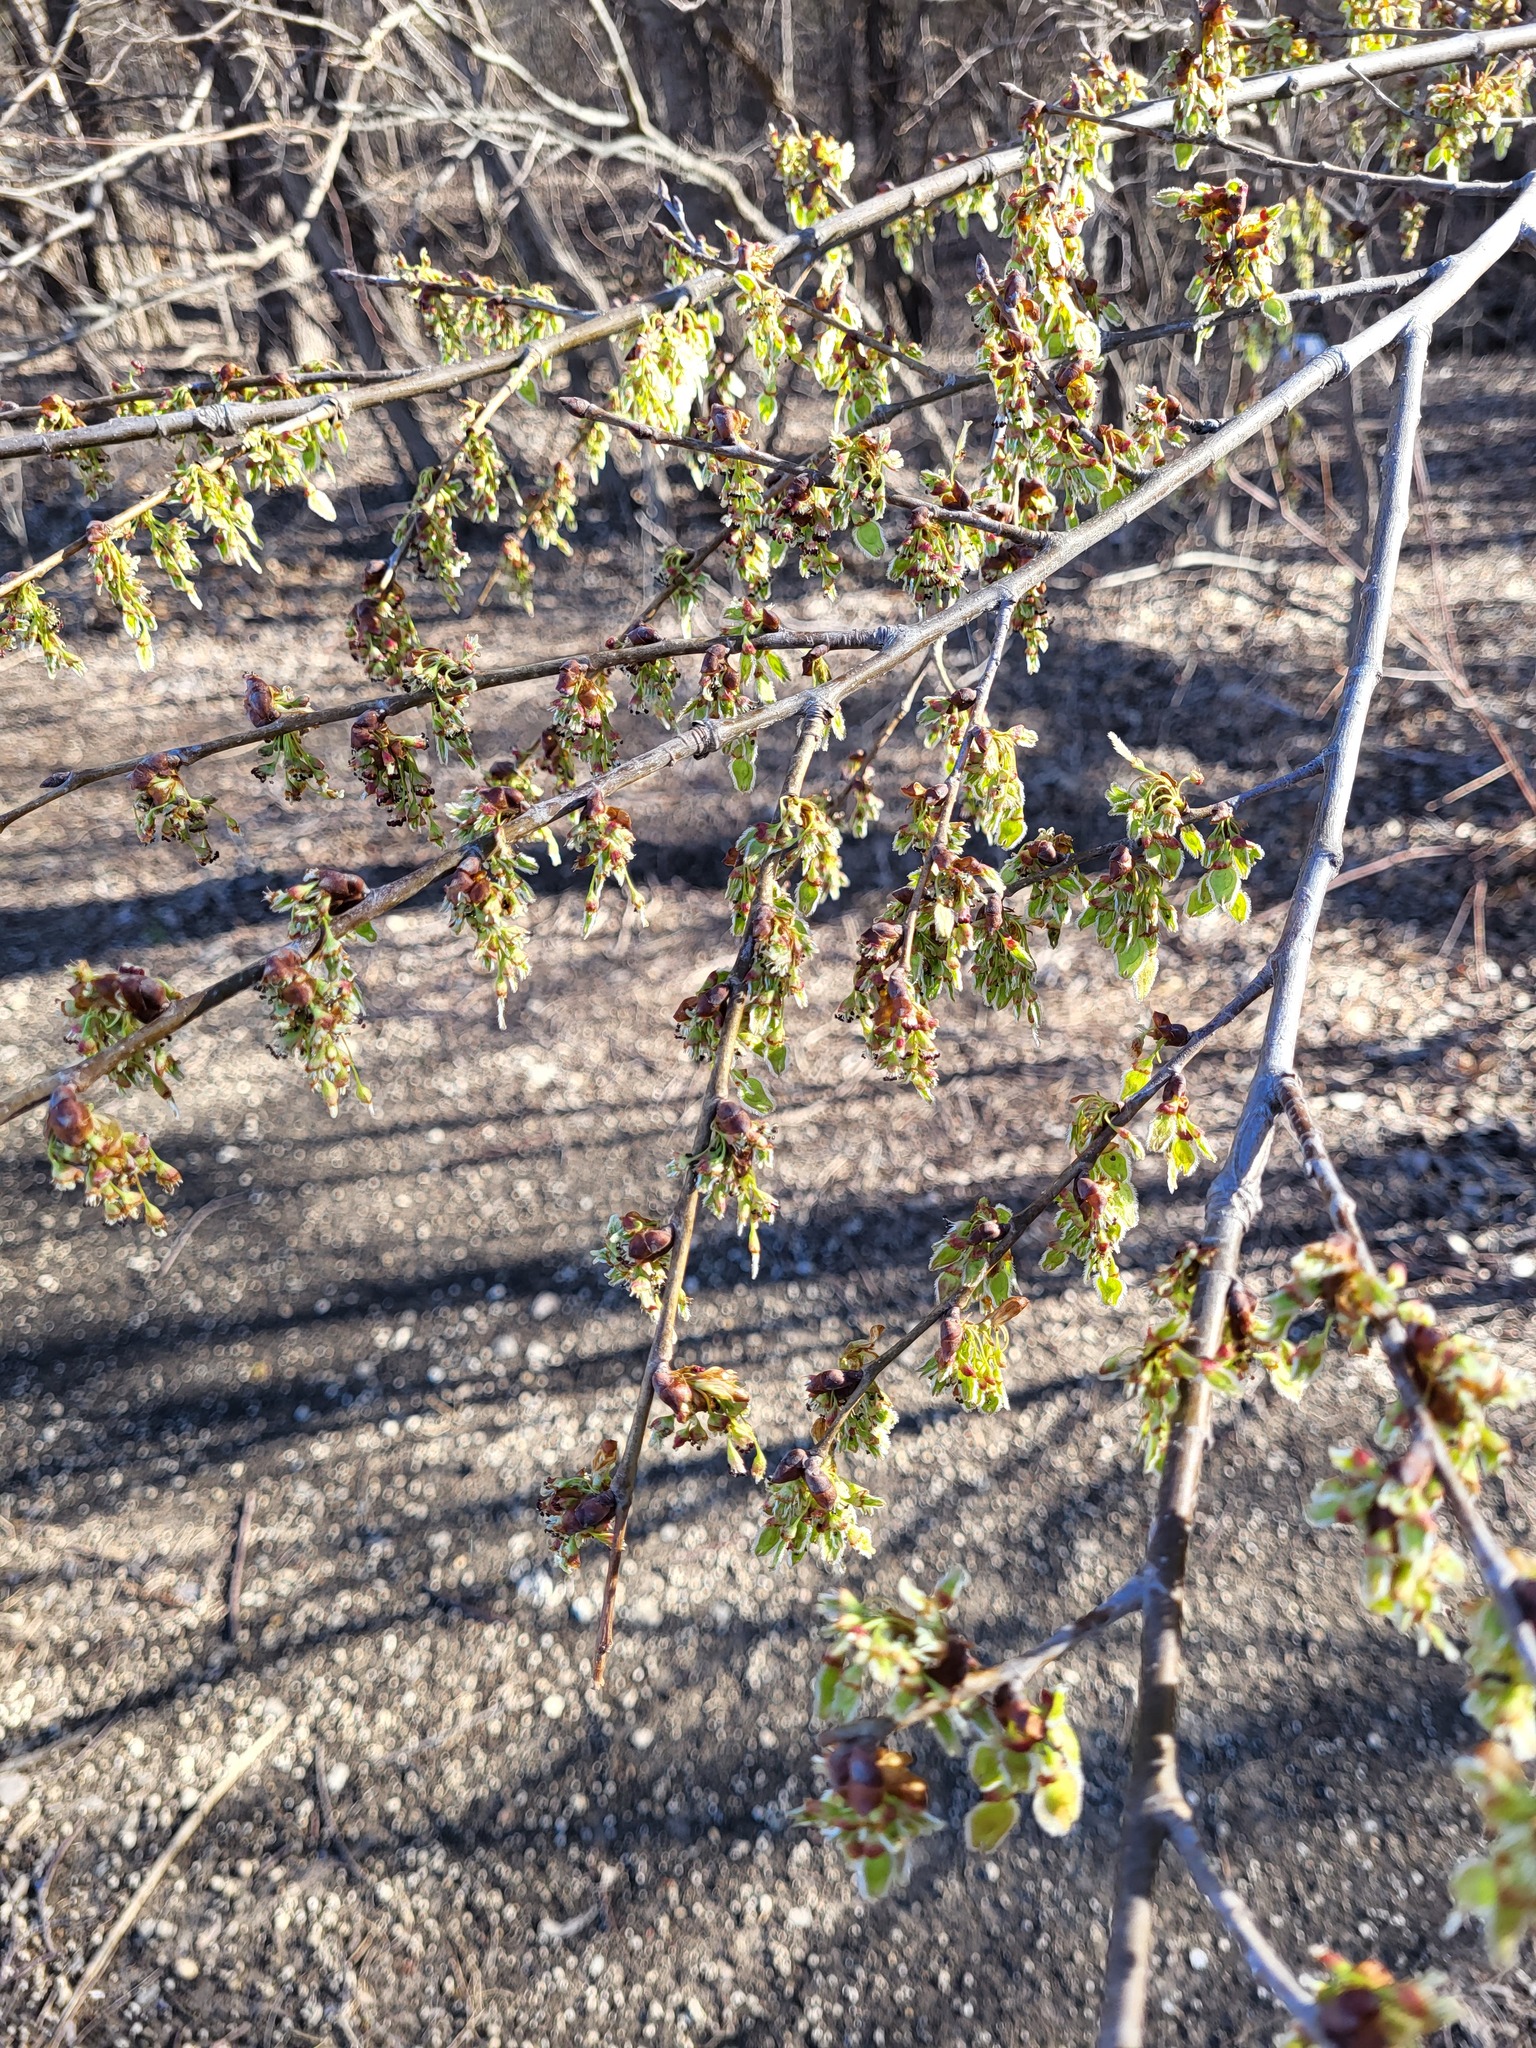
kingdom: Plantae
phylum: Tracheophyta
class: Magnoliopsida
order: Rosales
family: Ulmaceae
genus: Ulmus
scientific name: Ulmus americana
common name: American elm
